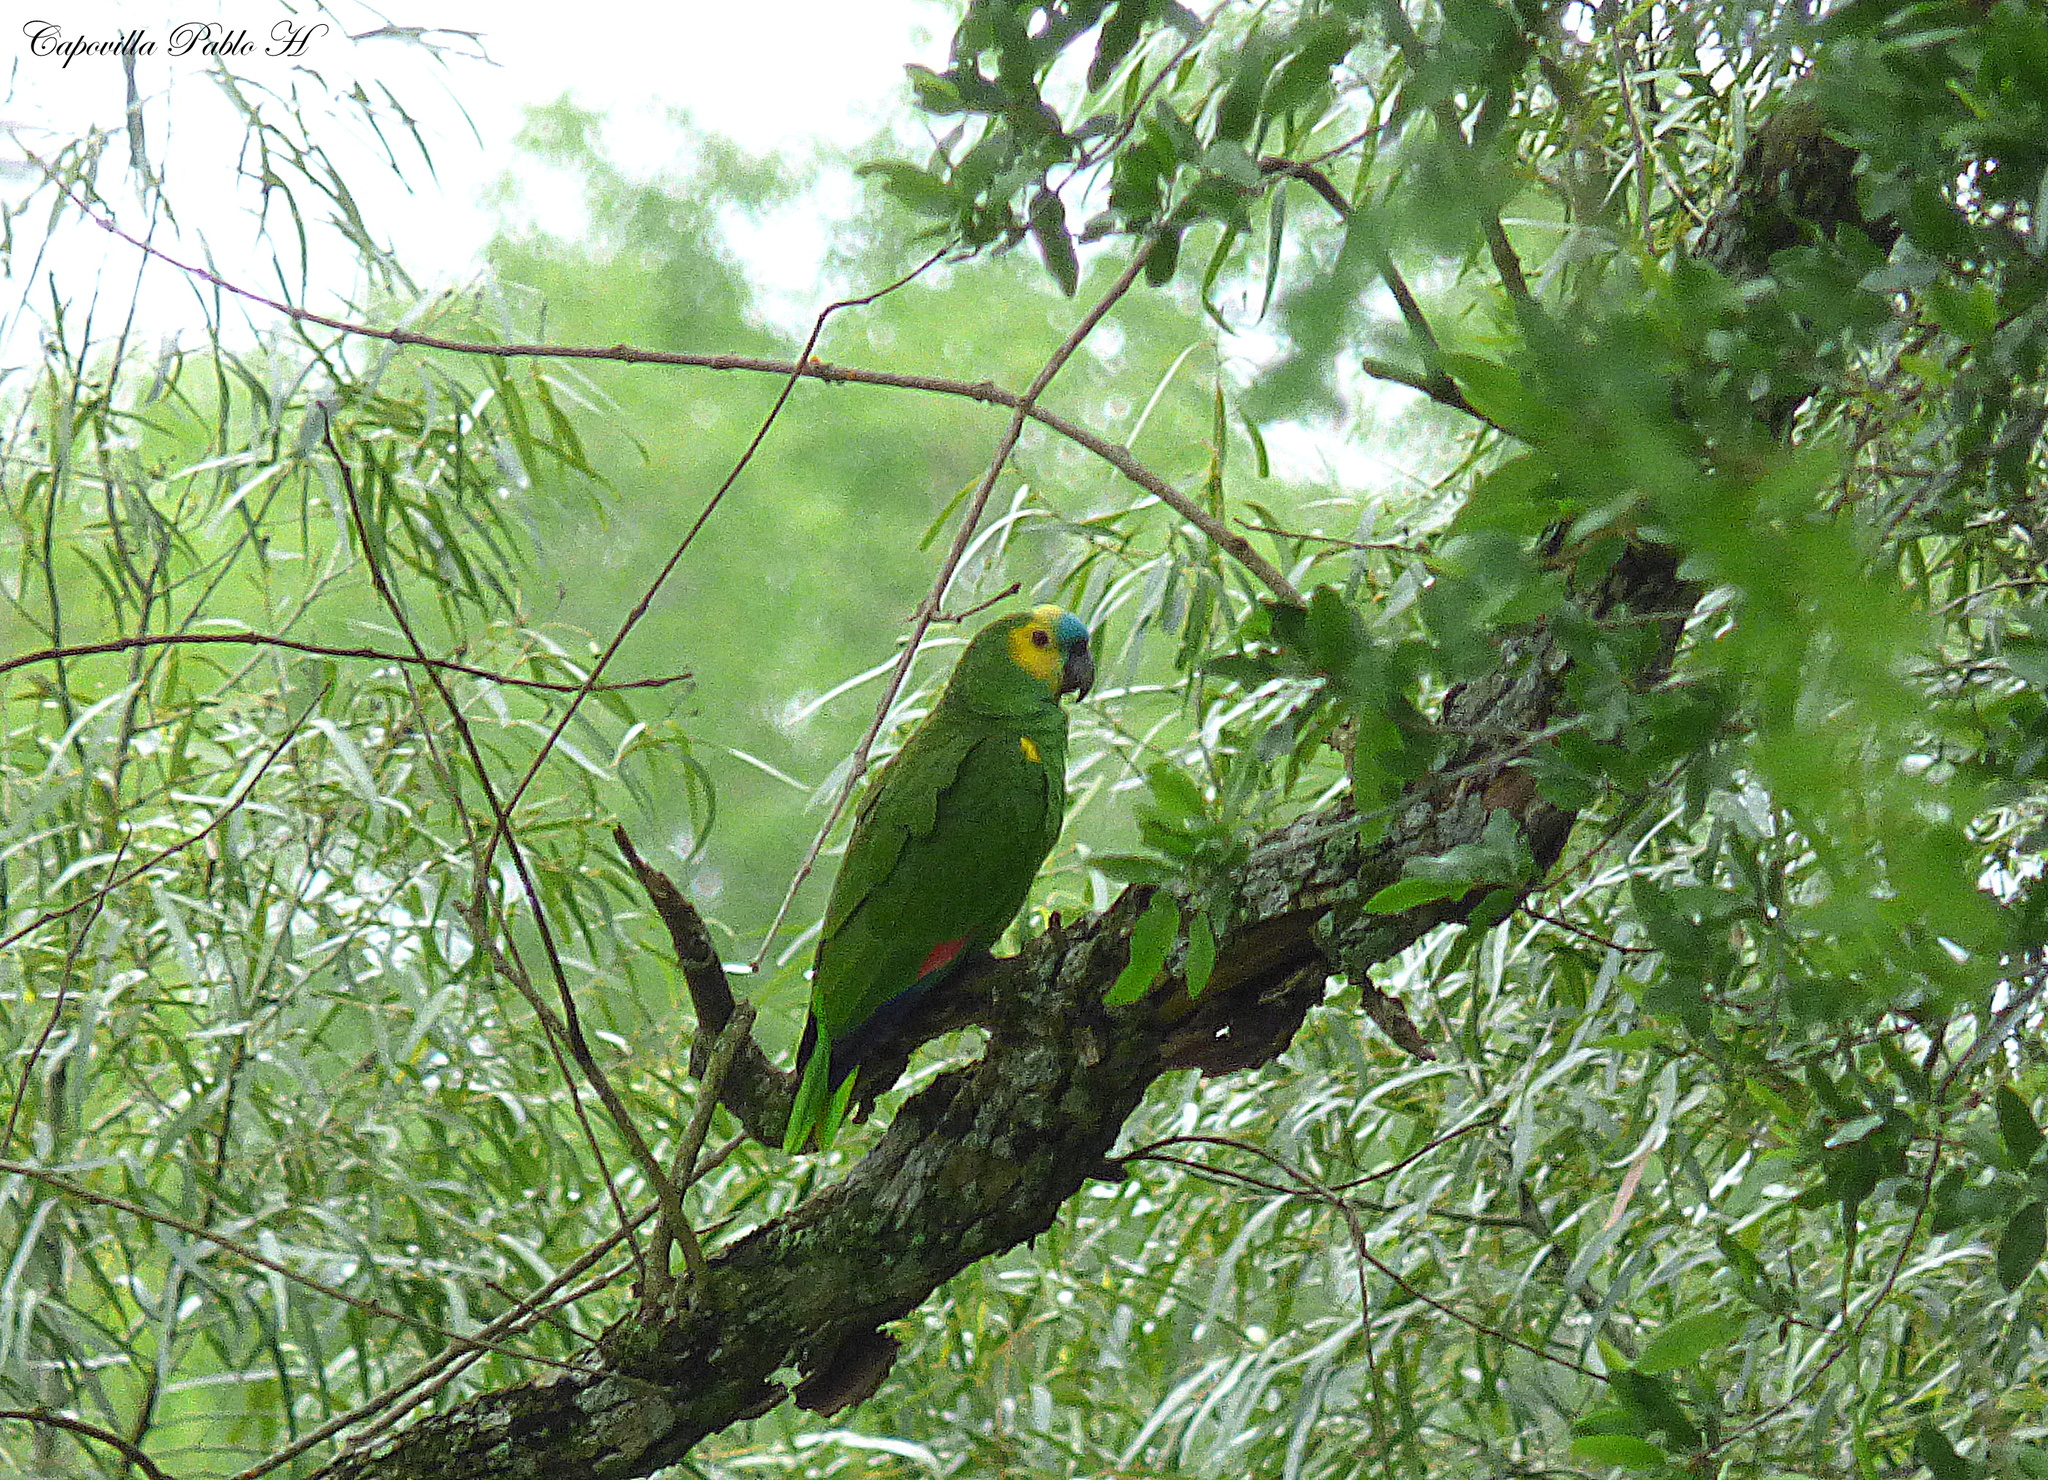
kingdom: Animalia
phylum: Chordata
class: Aves
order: Psittaciformes
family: Psittacidae
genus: Amazona
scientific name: Amazona aestiva
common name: Turquoise-fronted amazon
